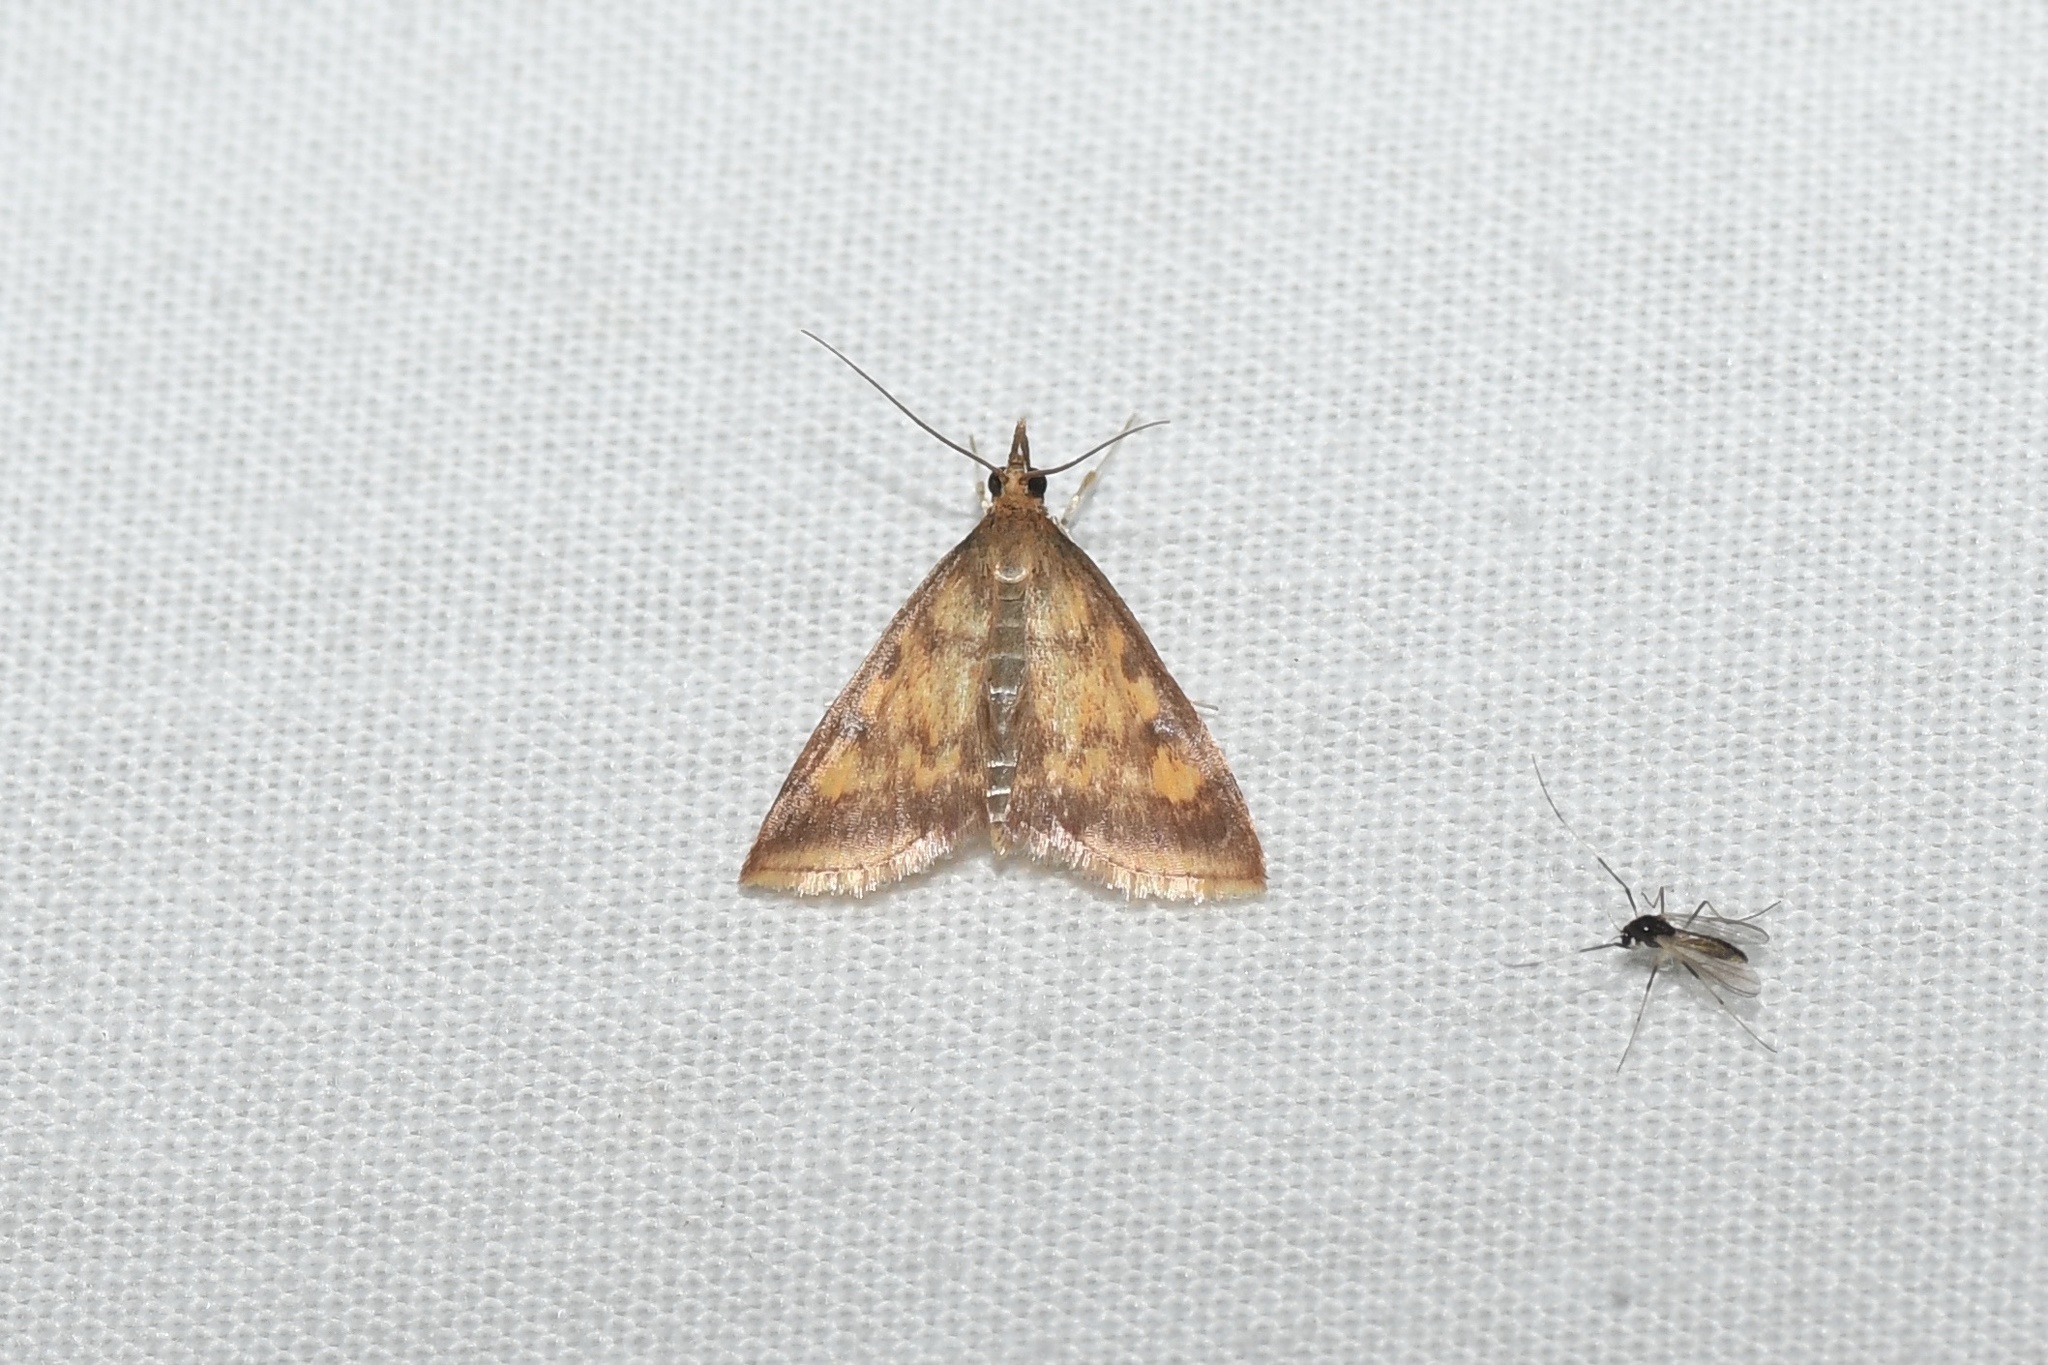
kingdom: Animalia
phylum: Arthropoda
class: Insecta
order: Lepidoptera
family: Crambidae
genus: Pyrausta
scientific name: Pyrausta acrionalis
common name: Mint-loving pyrausta moth
